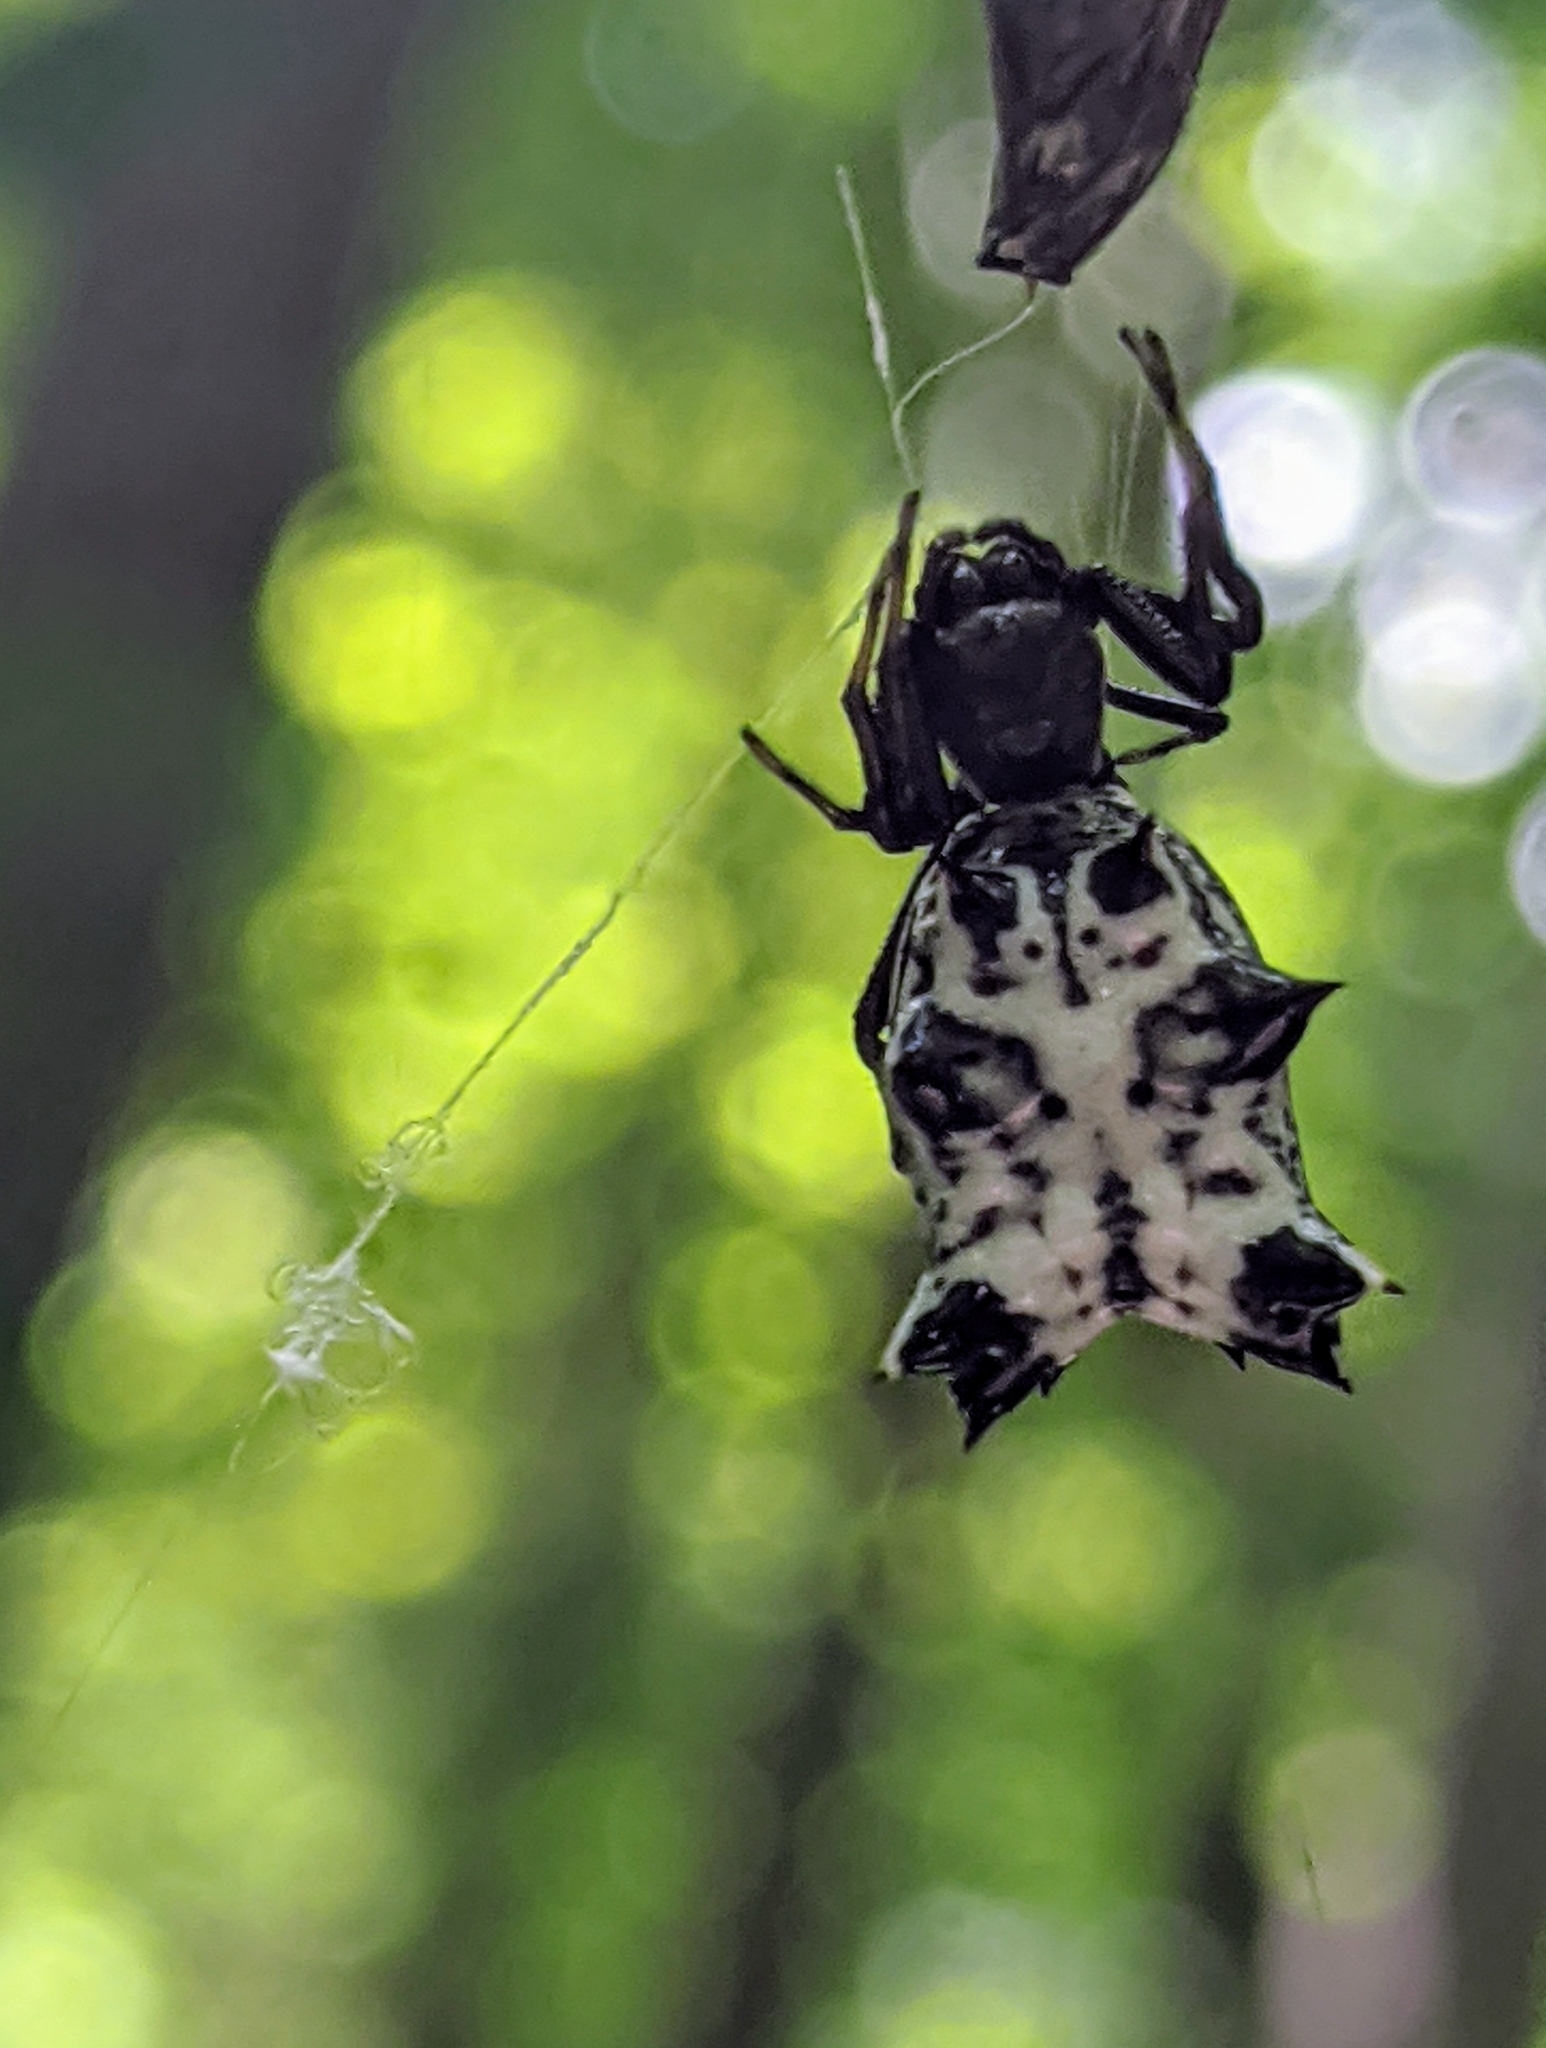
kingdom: Animalia
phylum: Arthropoda
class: Arachnida
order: Araneae
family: Araneidae
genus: Micrathena
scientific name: Micrathena gracilis
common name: Orb weavers
